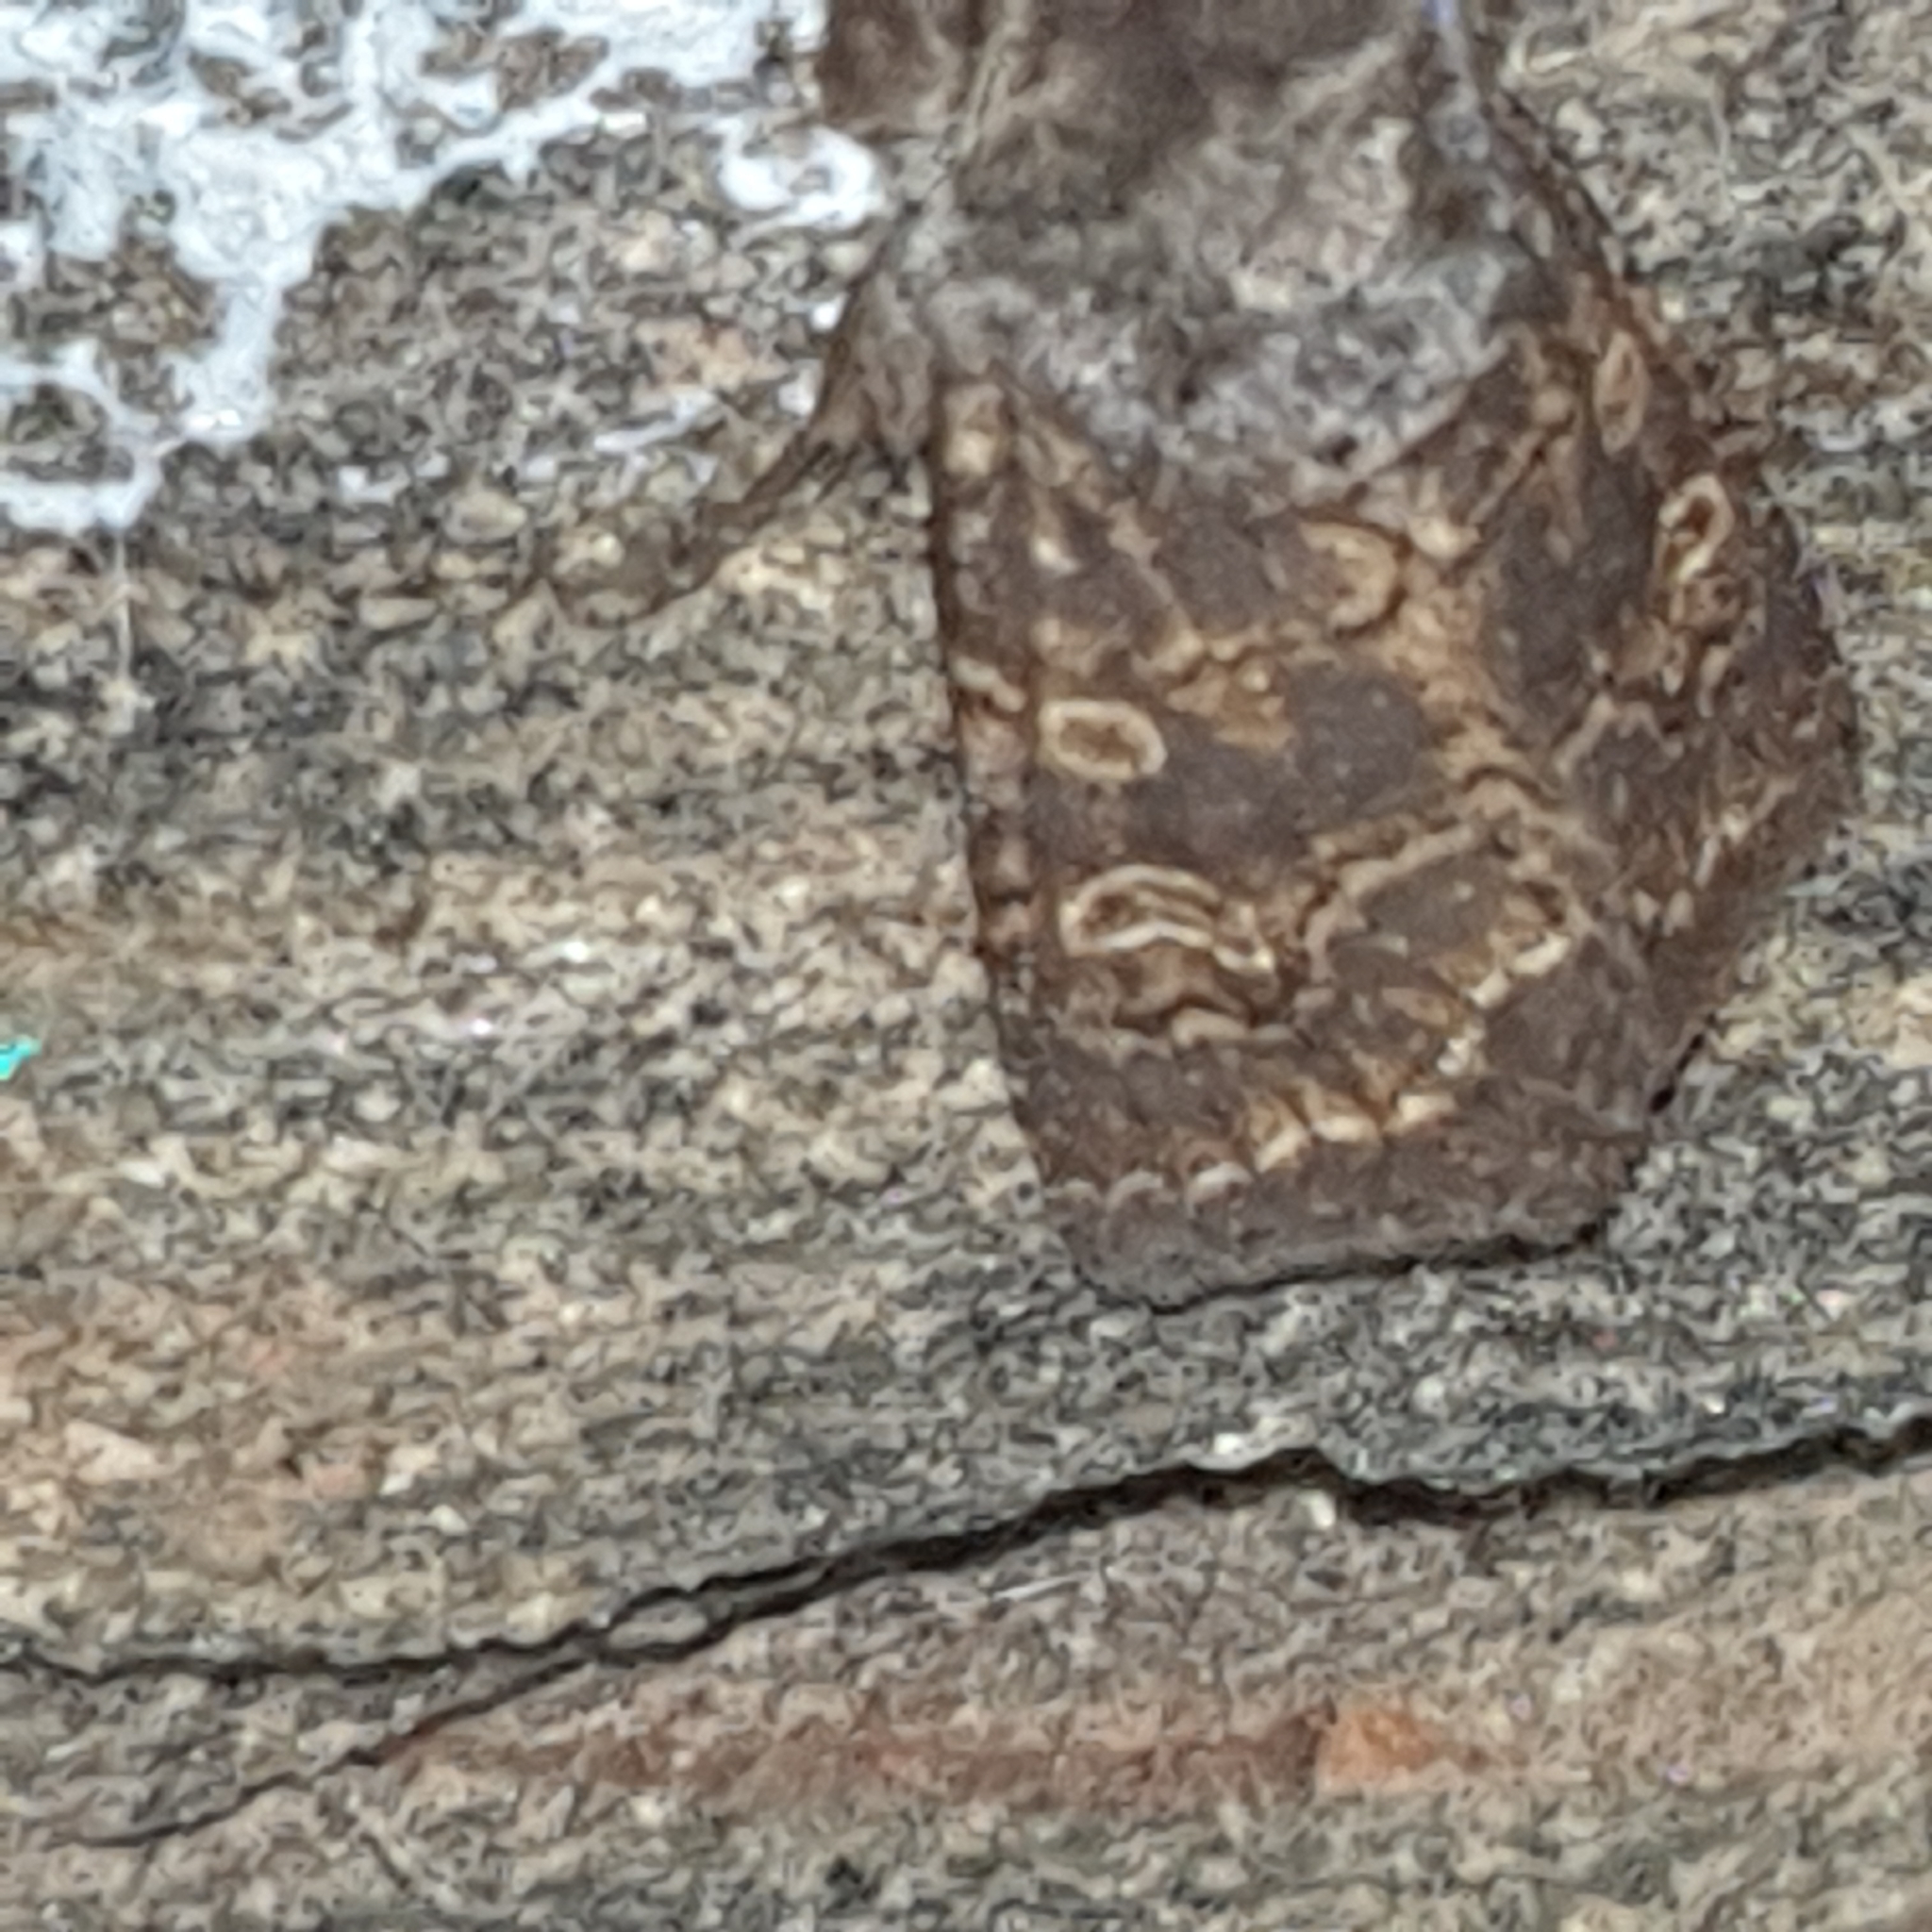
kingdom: Animalia
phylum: Arthropoda
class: Insecta
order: Lepidoptera
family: Noctuidae
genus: Tholera
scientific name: Tholera cespitis
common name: Hedge rustic
